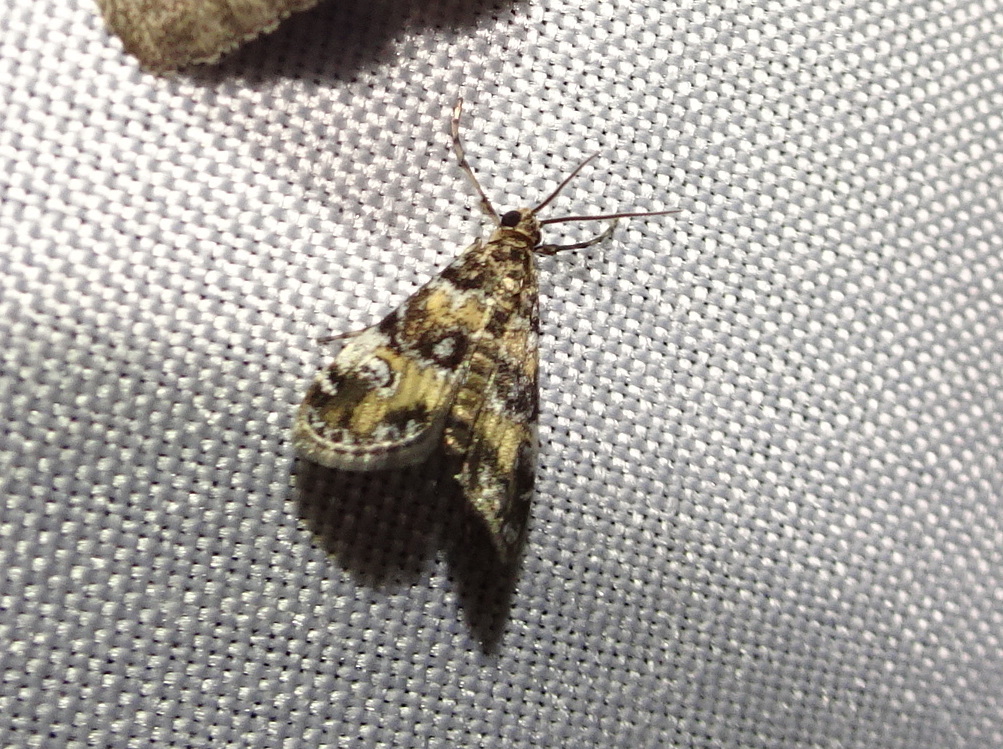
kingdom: Animalia
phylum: Arthropoda
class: Insecta
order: Lepidoptera
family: Crambidae
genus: Elophila
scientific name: Elophila obliteralis
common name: Waterlily leafcutter moth
